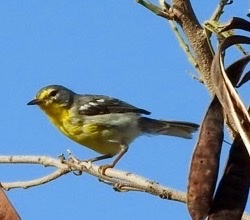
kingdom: Animalia
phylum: Chordata
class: Aves
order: Passeriformes
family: Parulidae
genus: Setophaga
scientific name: Setophaga adelaidae
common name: Adelaide's warbler
